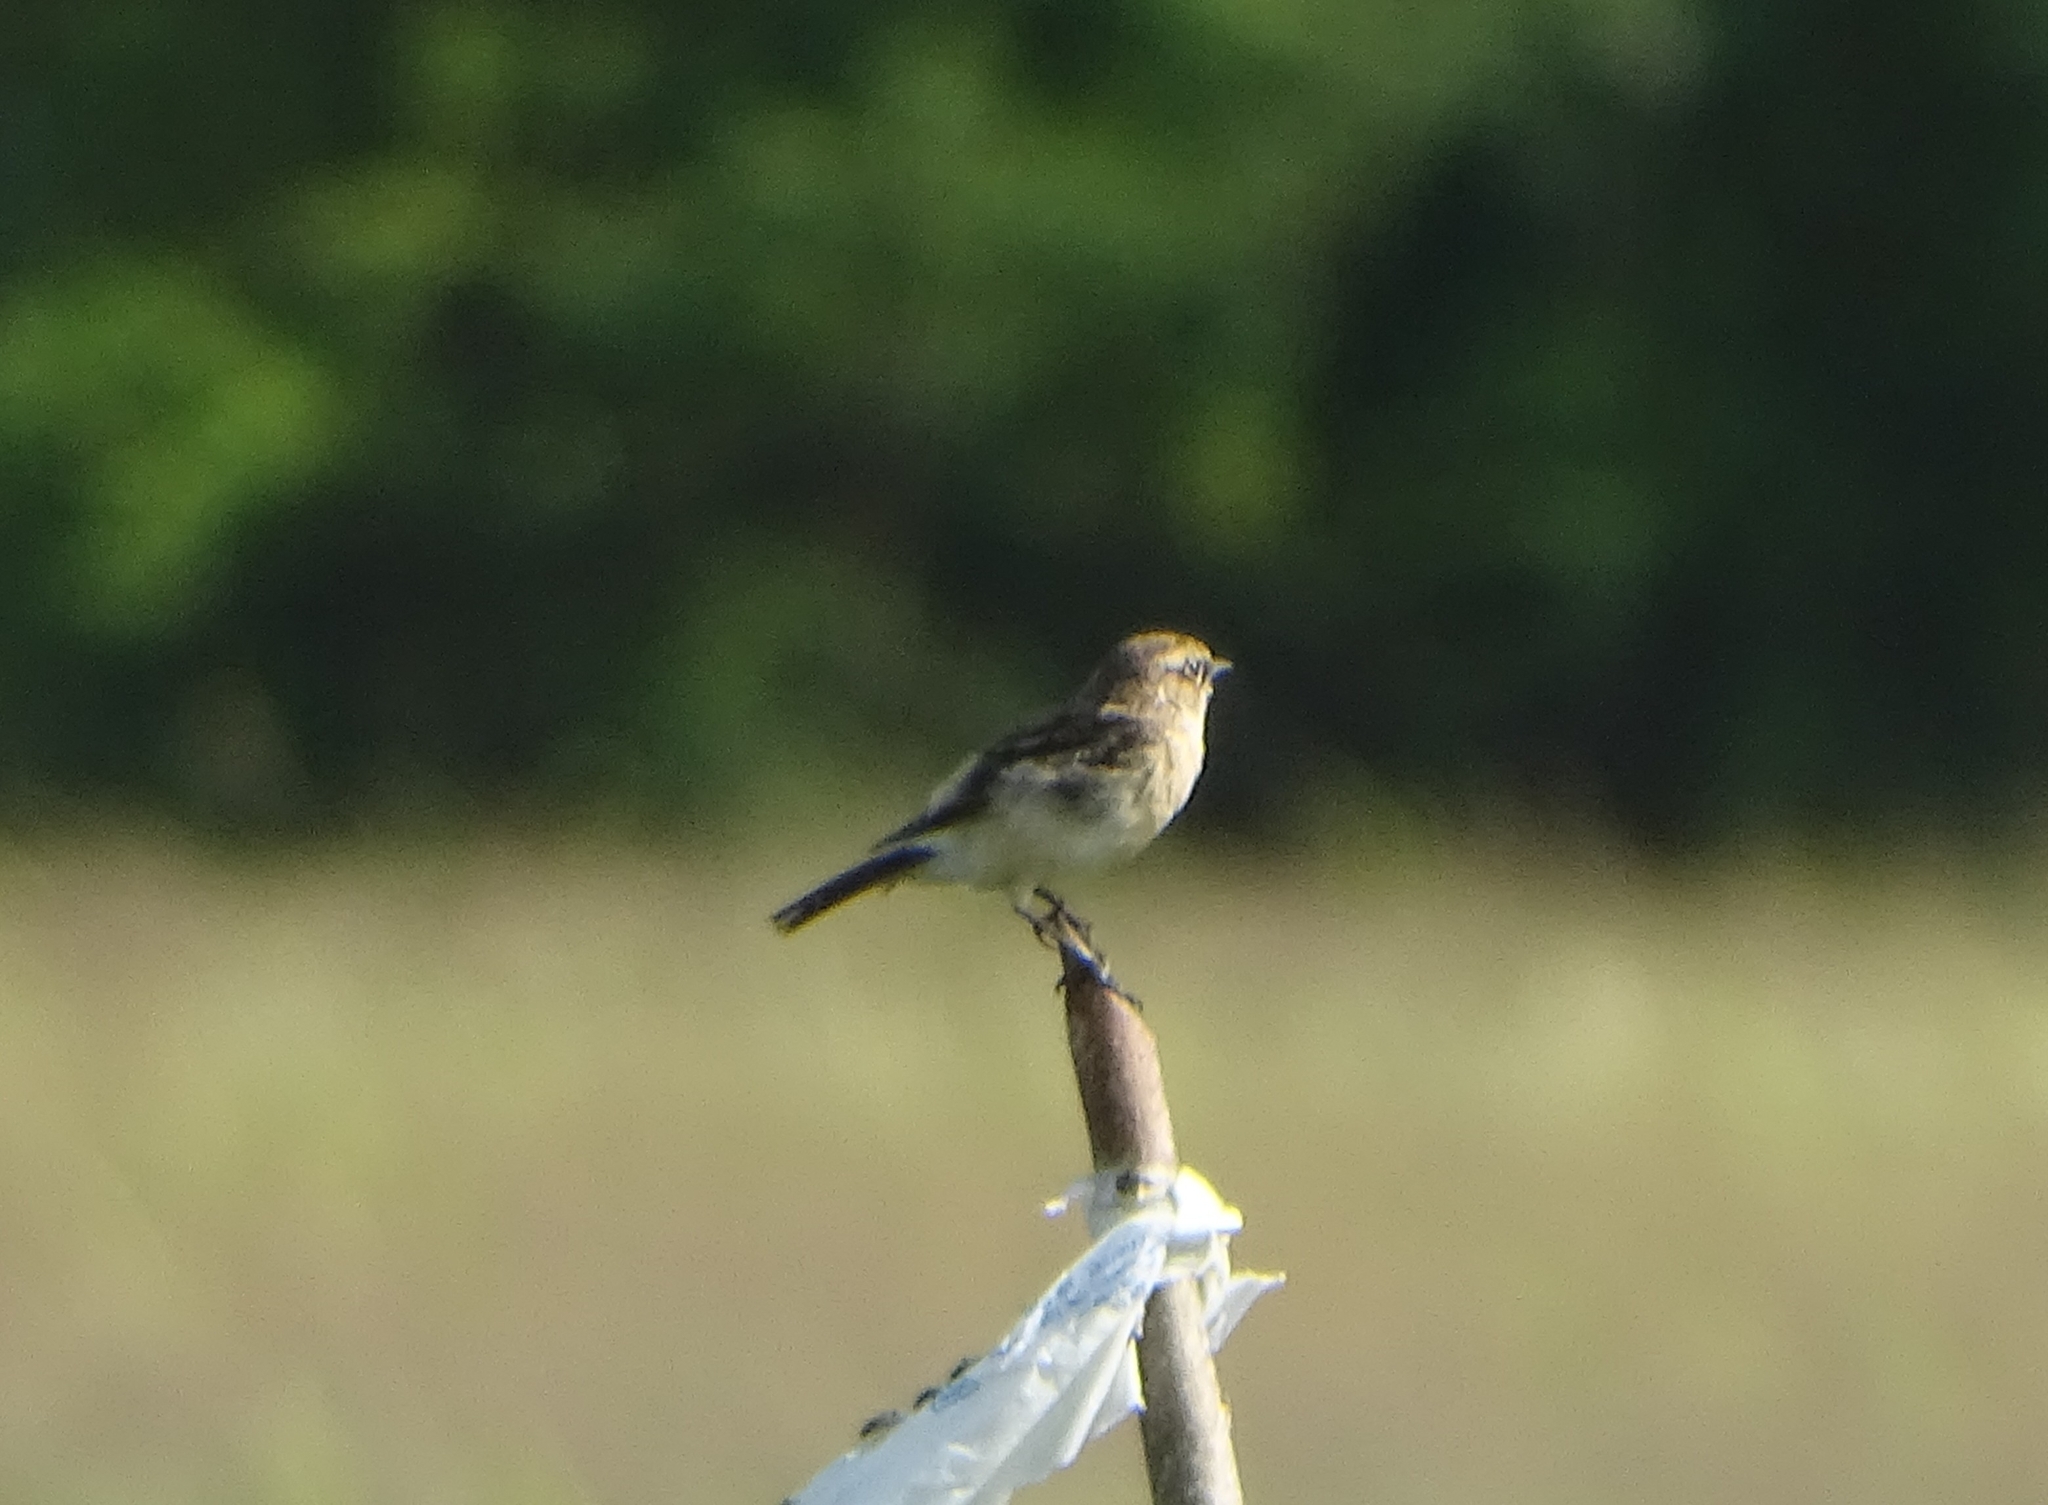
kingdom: Animalia
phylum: Chordata
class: Aves
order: Passeriformes
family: Muscicapidae
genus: Saxicola
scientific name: Saxicola maurus
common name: Siberian stonechat
